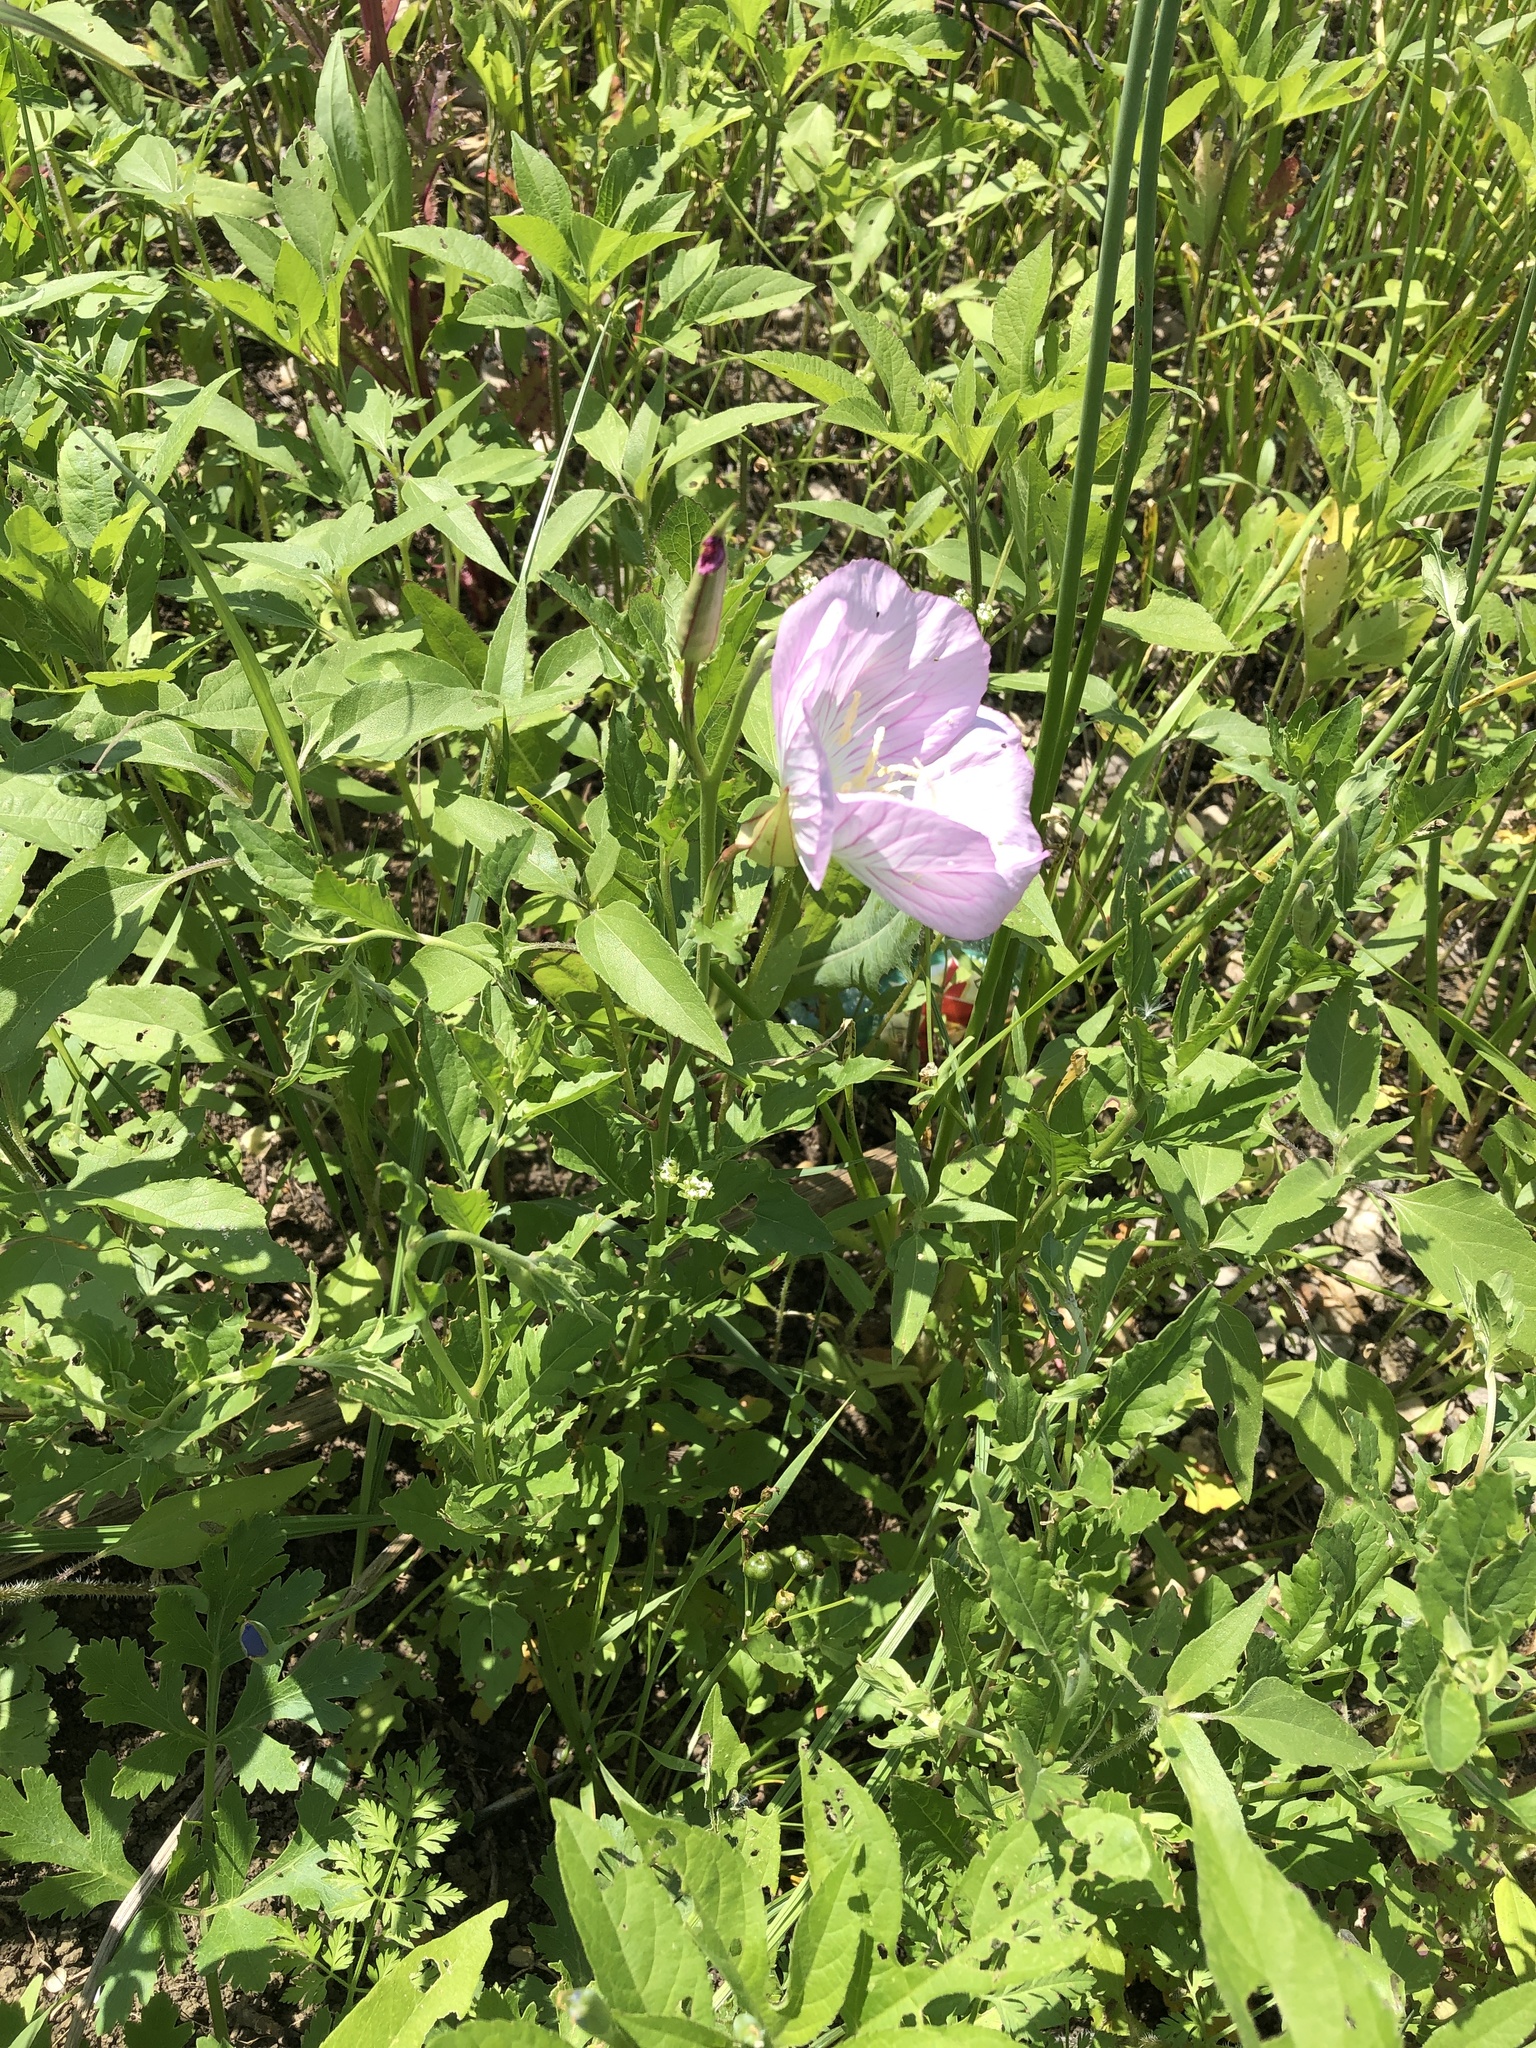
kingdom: Plantae
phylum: Tracheophyta
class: Magnoliopsida
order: Myrtales
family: Onagraceae
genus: Oenothera
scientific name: Oenothera speciosa
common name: White evening-primrose
